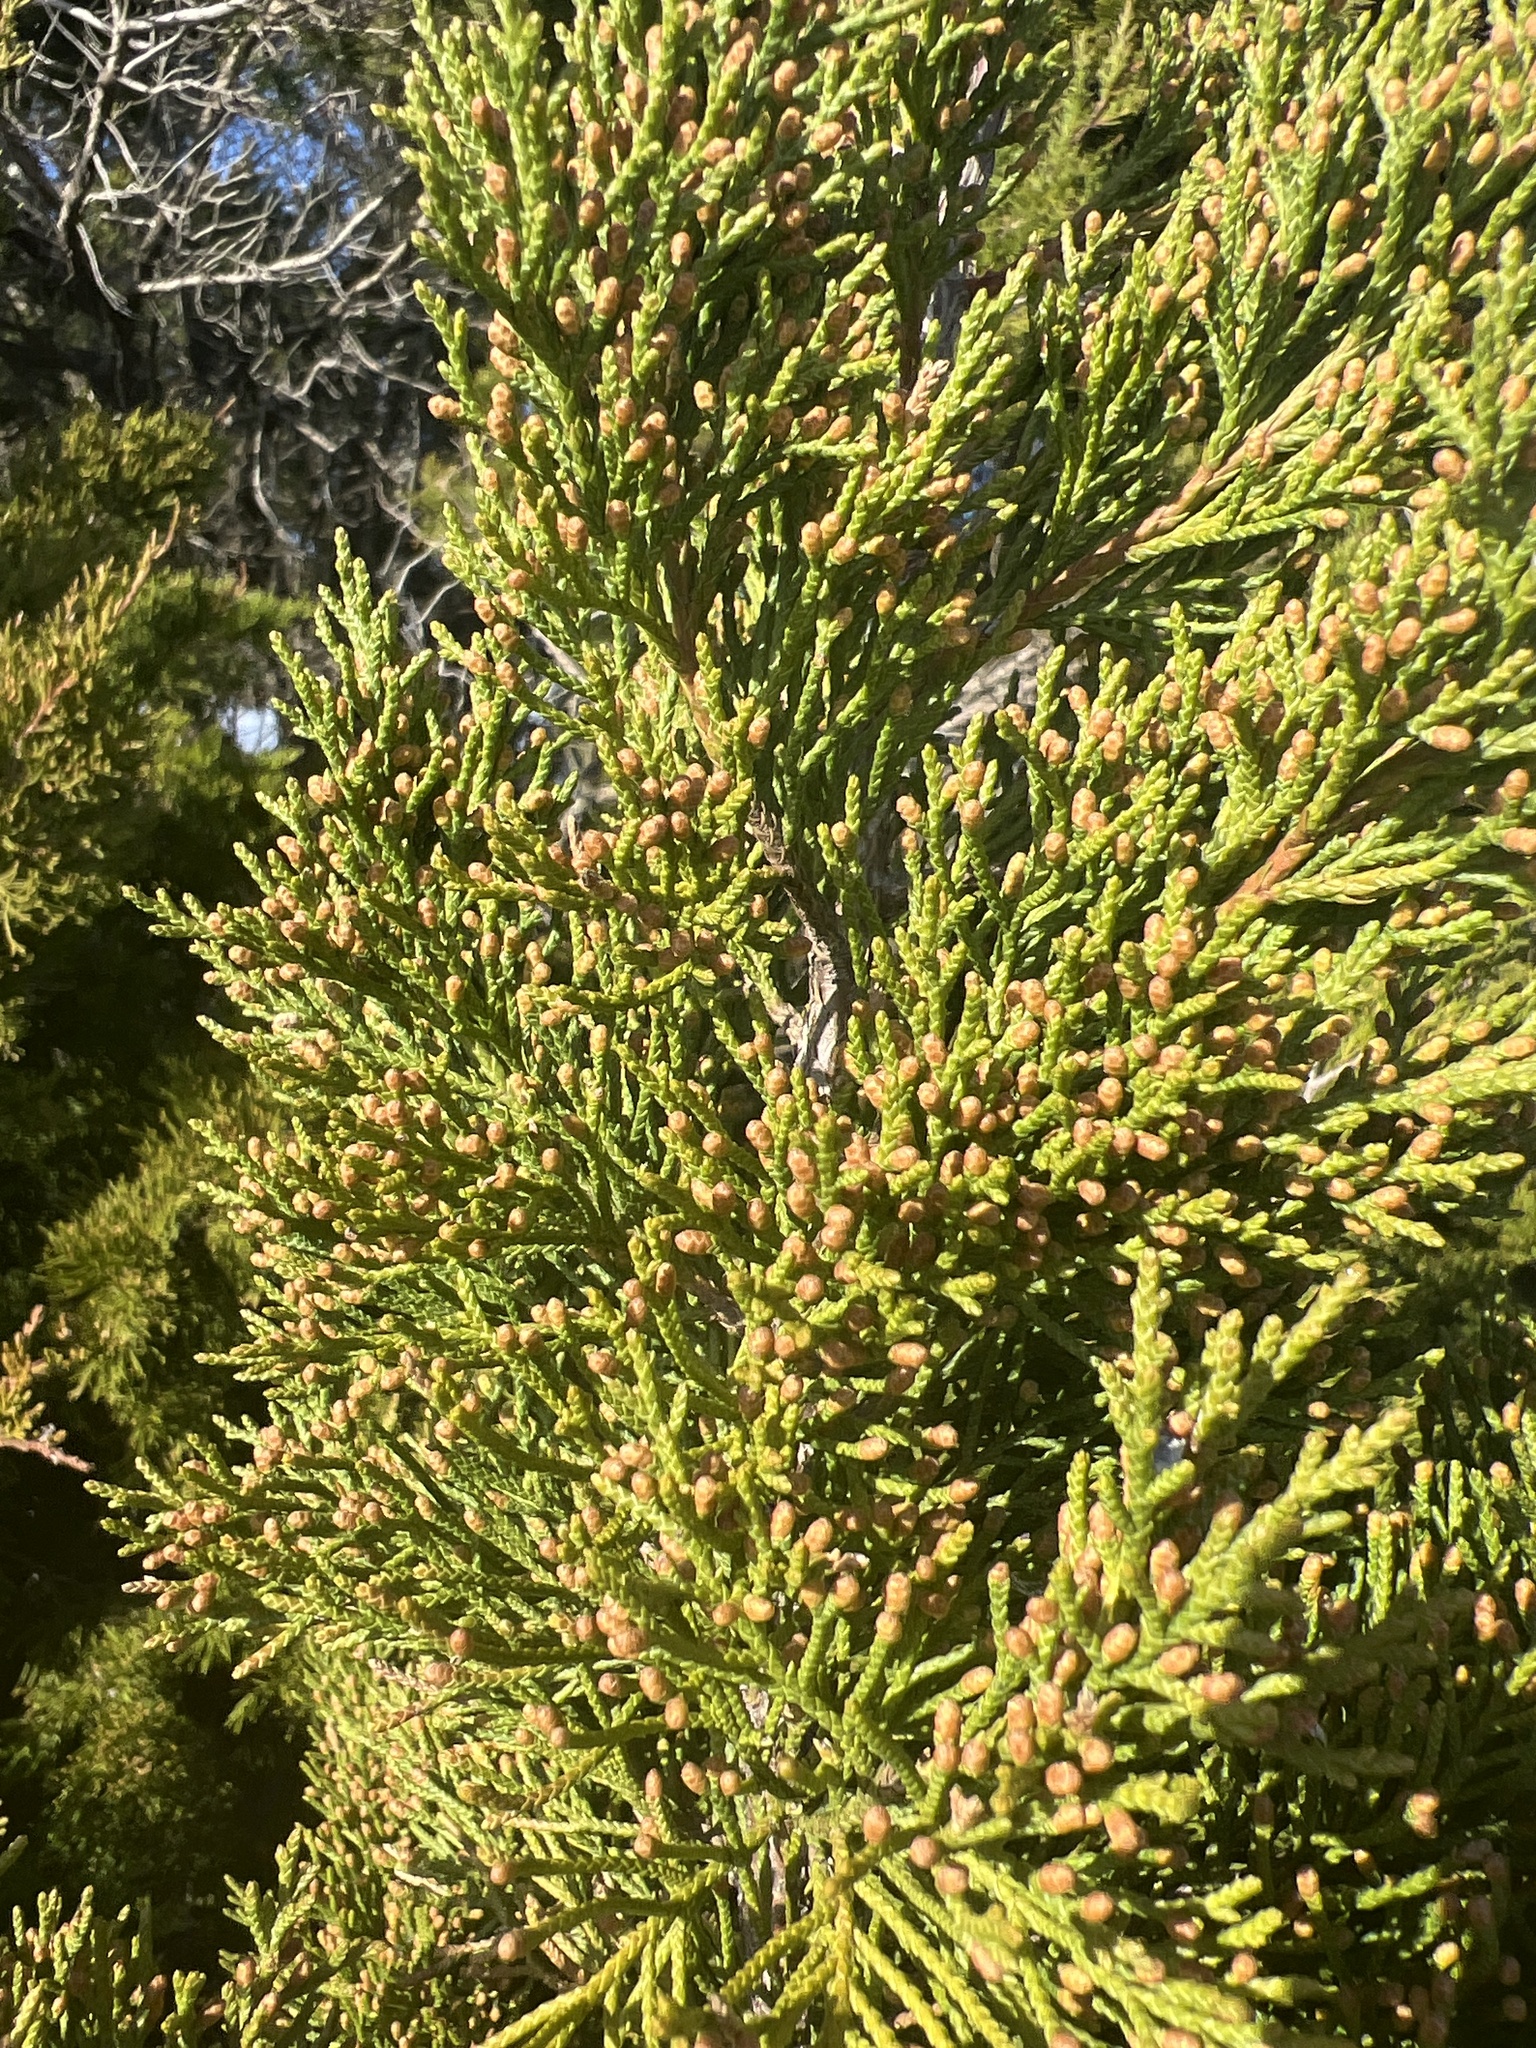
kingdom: Plantae
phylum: Tracheophyta
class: Pinopsida
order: Pinales
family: Cupressaceae
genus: Juniperus
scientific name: Juniperus virginiana
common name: Red juniper
